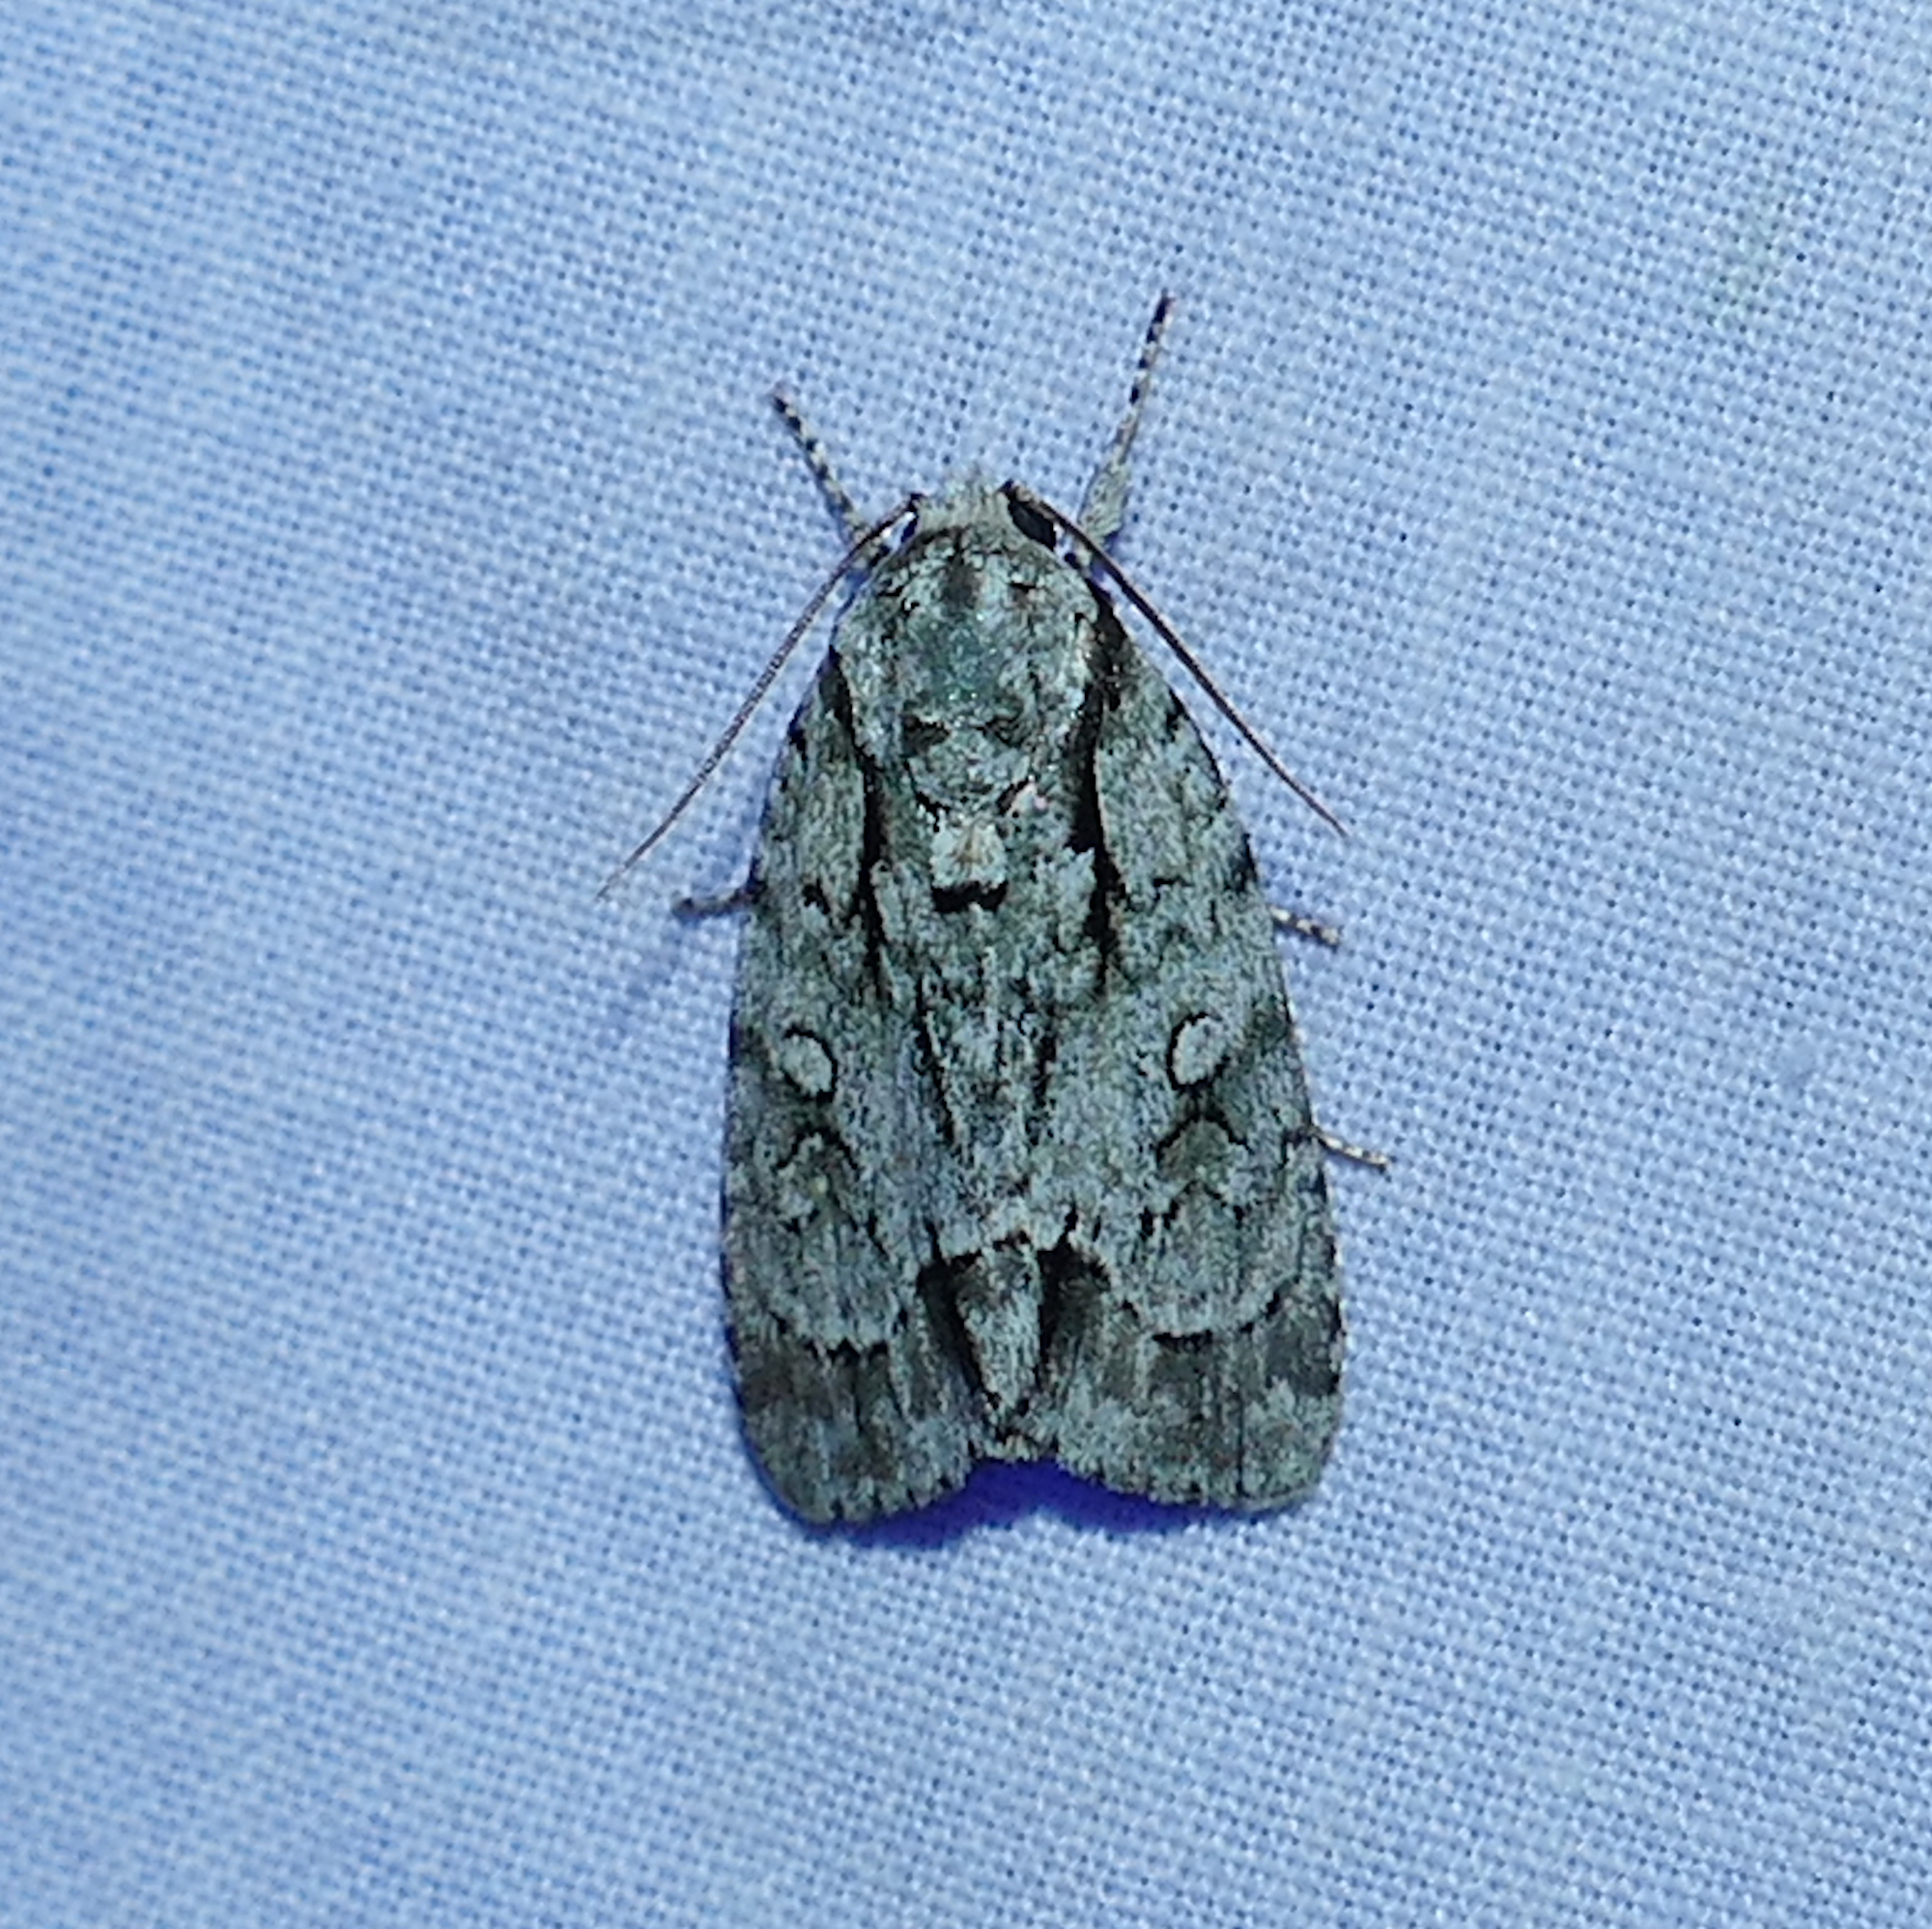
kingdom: Animalia
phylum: Arthropoda
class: Insecta
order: Lepidoptera
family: Noctuidae
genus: Acronicta
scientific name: Acronicta vinnula
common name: Delightful dagger
